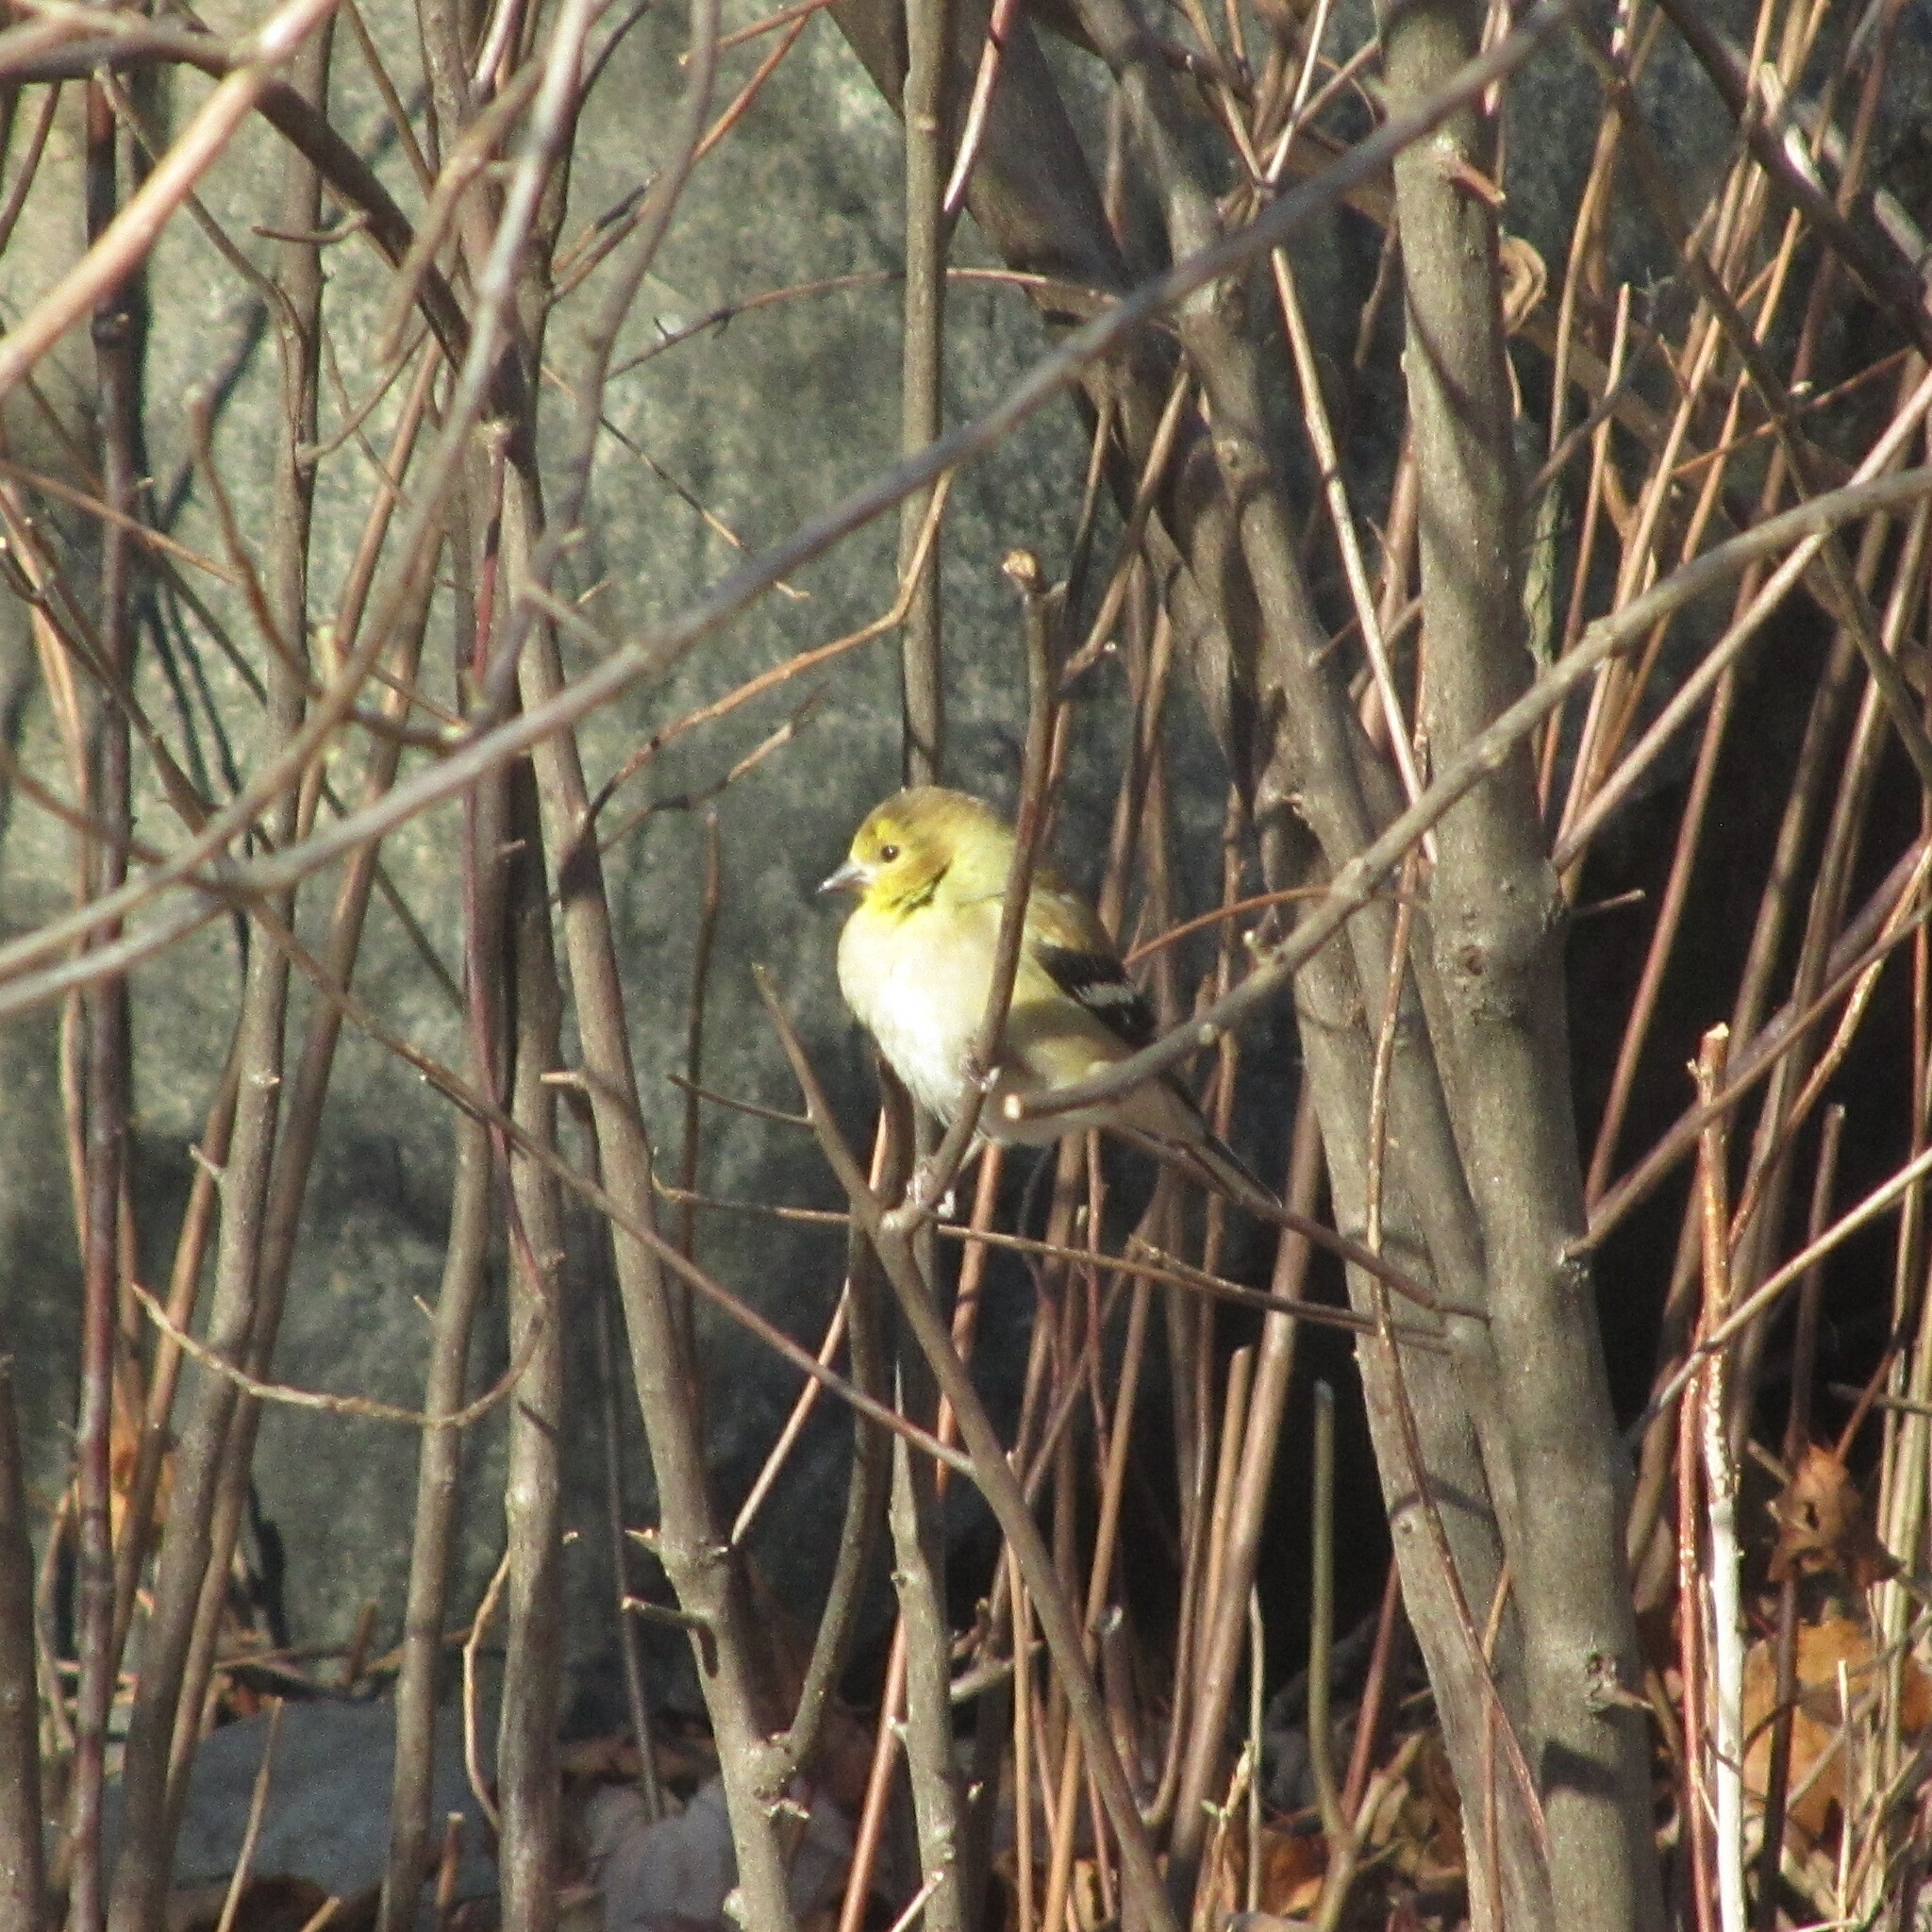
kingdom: Animalia
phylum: Chordata
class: Aves
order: Passeriformes
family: Fringillidae
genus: Spinus
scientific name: Spinus tristis
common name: American goldfinch
